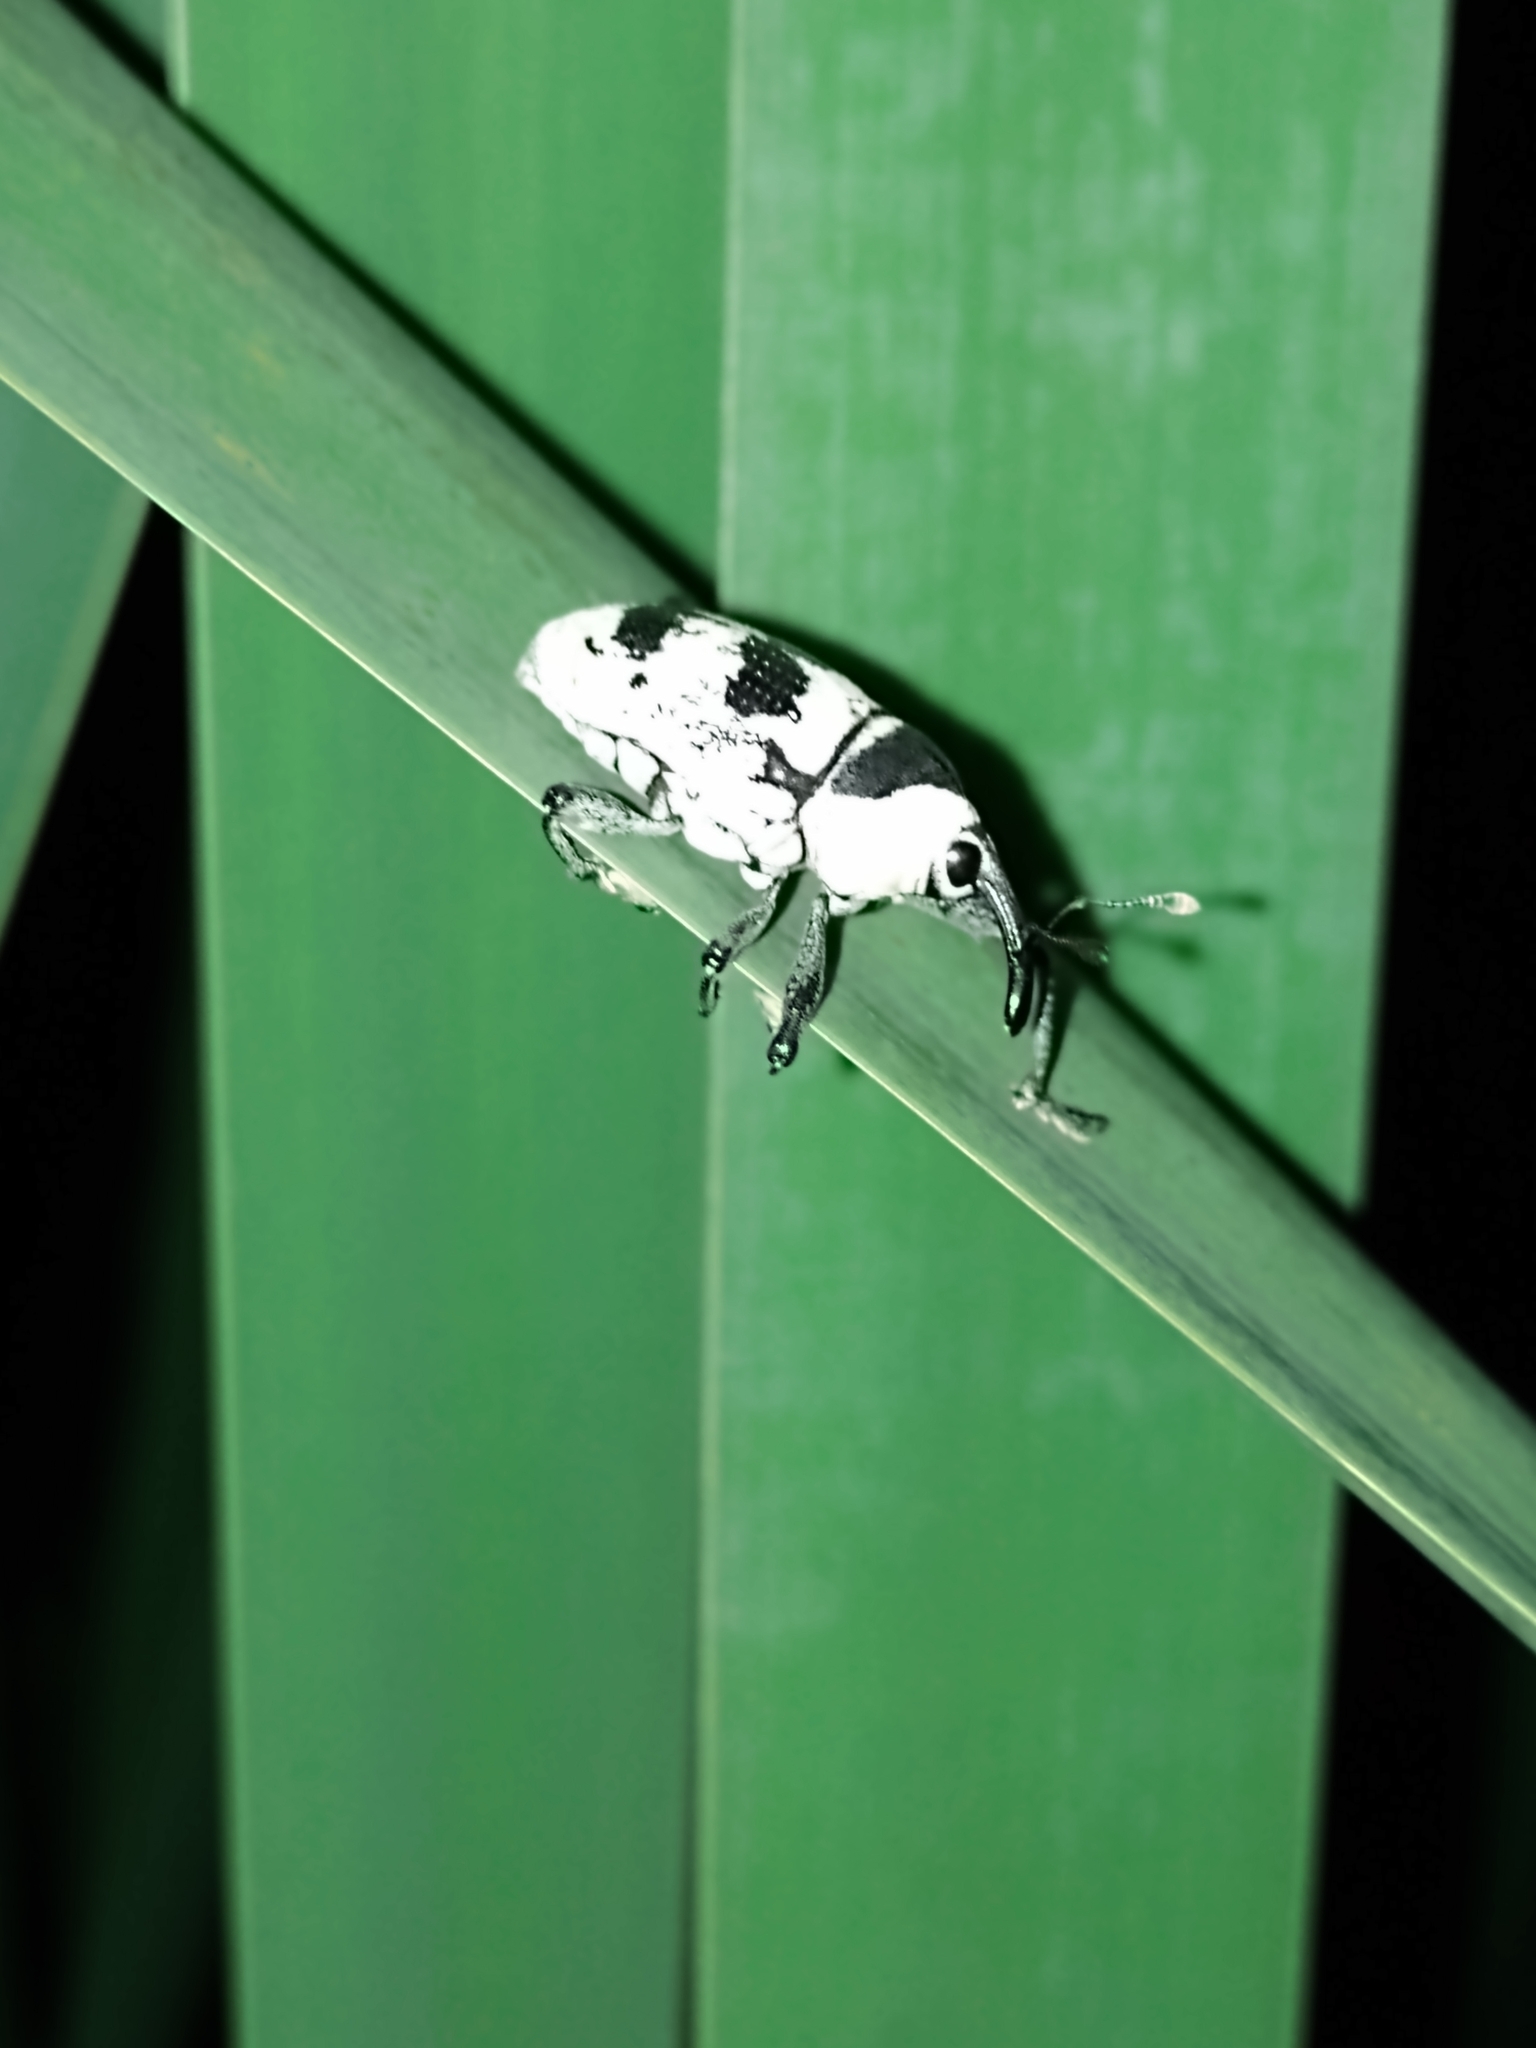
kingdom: Animalia
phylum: Arthropoda
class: Insecta
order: Coleoptera
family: Curculionidae
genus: Cholus
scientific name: Cholus annulatus
